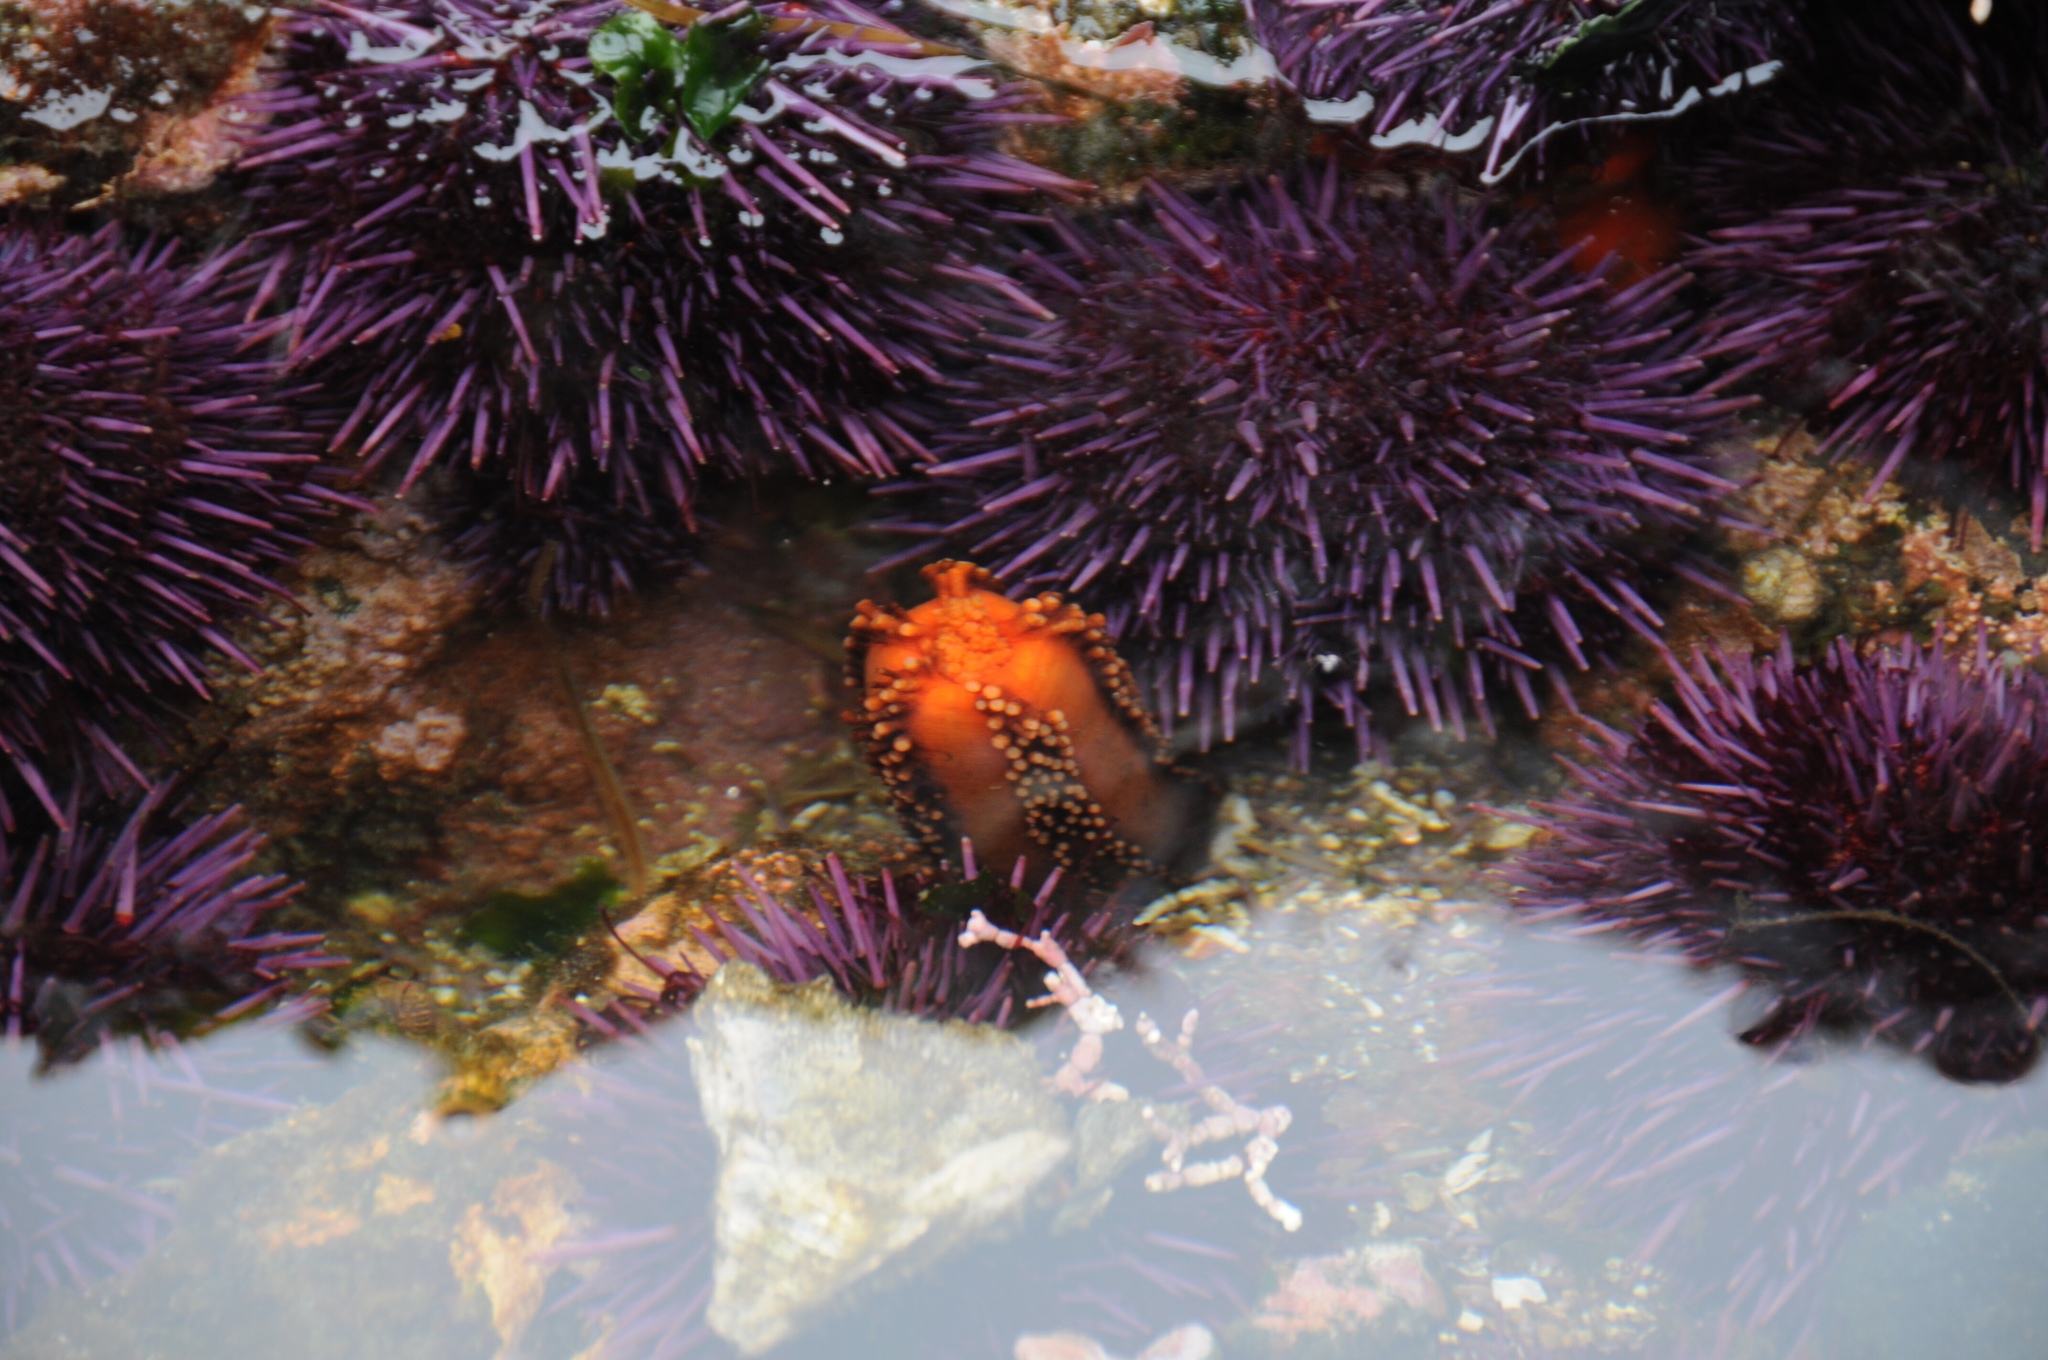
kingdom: Animalia
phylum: Echinodermata
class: Echinoidea
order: Camarodonta
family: Strongylocentrotidae
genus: Strongylocentrotus
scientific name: Strongylocentrotus purpuratus
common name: Purple sea urchin
